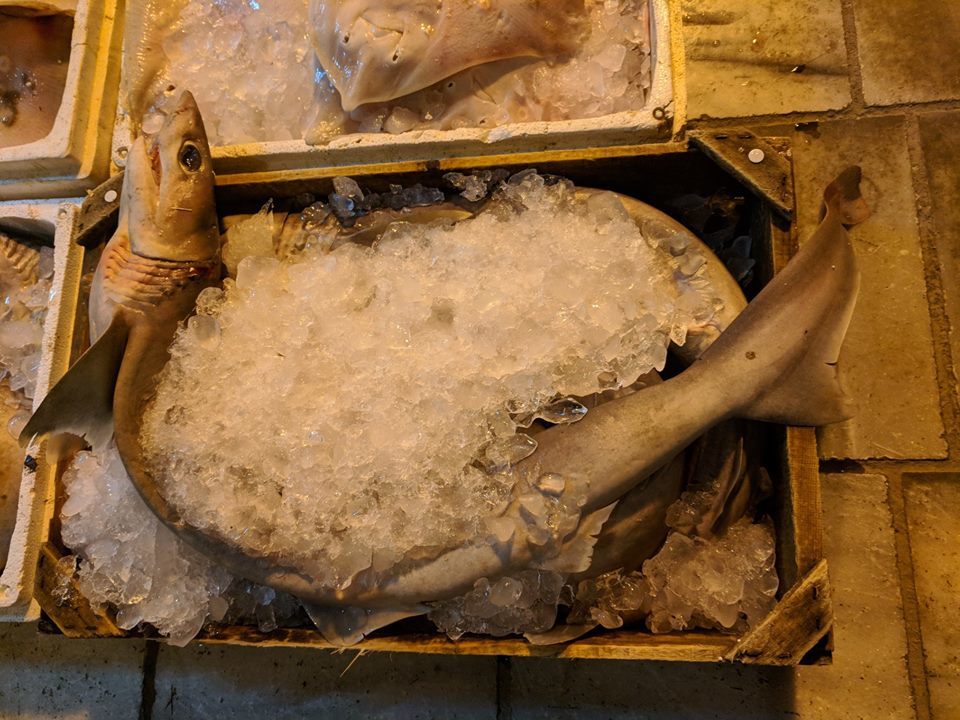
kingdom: Animalia
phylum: Chordata
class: Elasmobranchii
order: Hexanchiformes
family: Hexanchidae
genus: Heptranchias
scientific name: Heptranchias perlo
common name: Sharpnose sevengill shark
